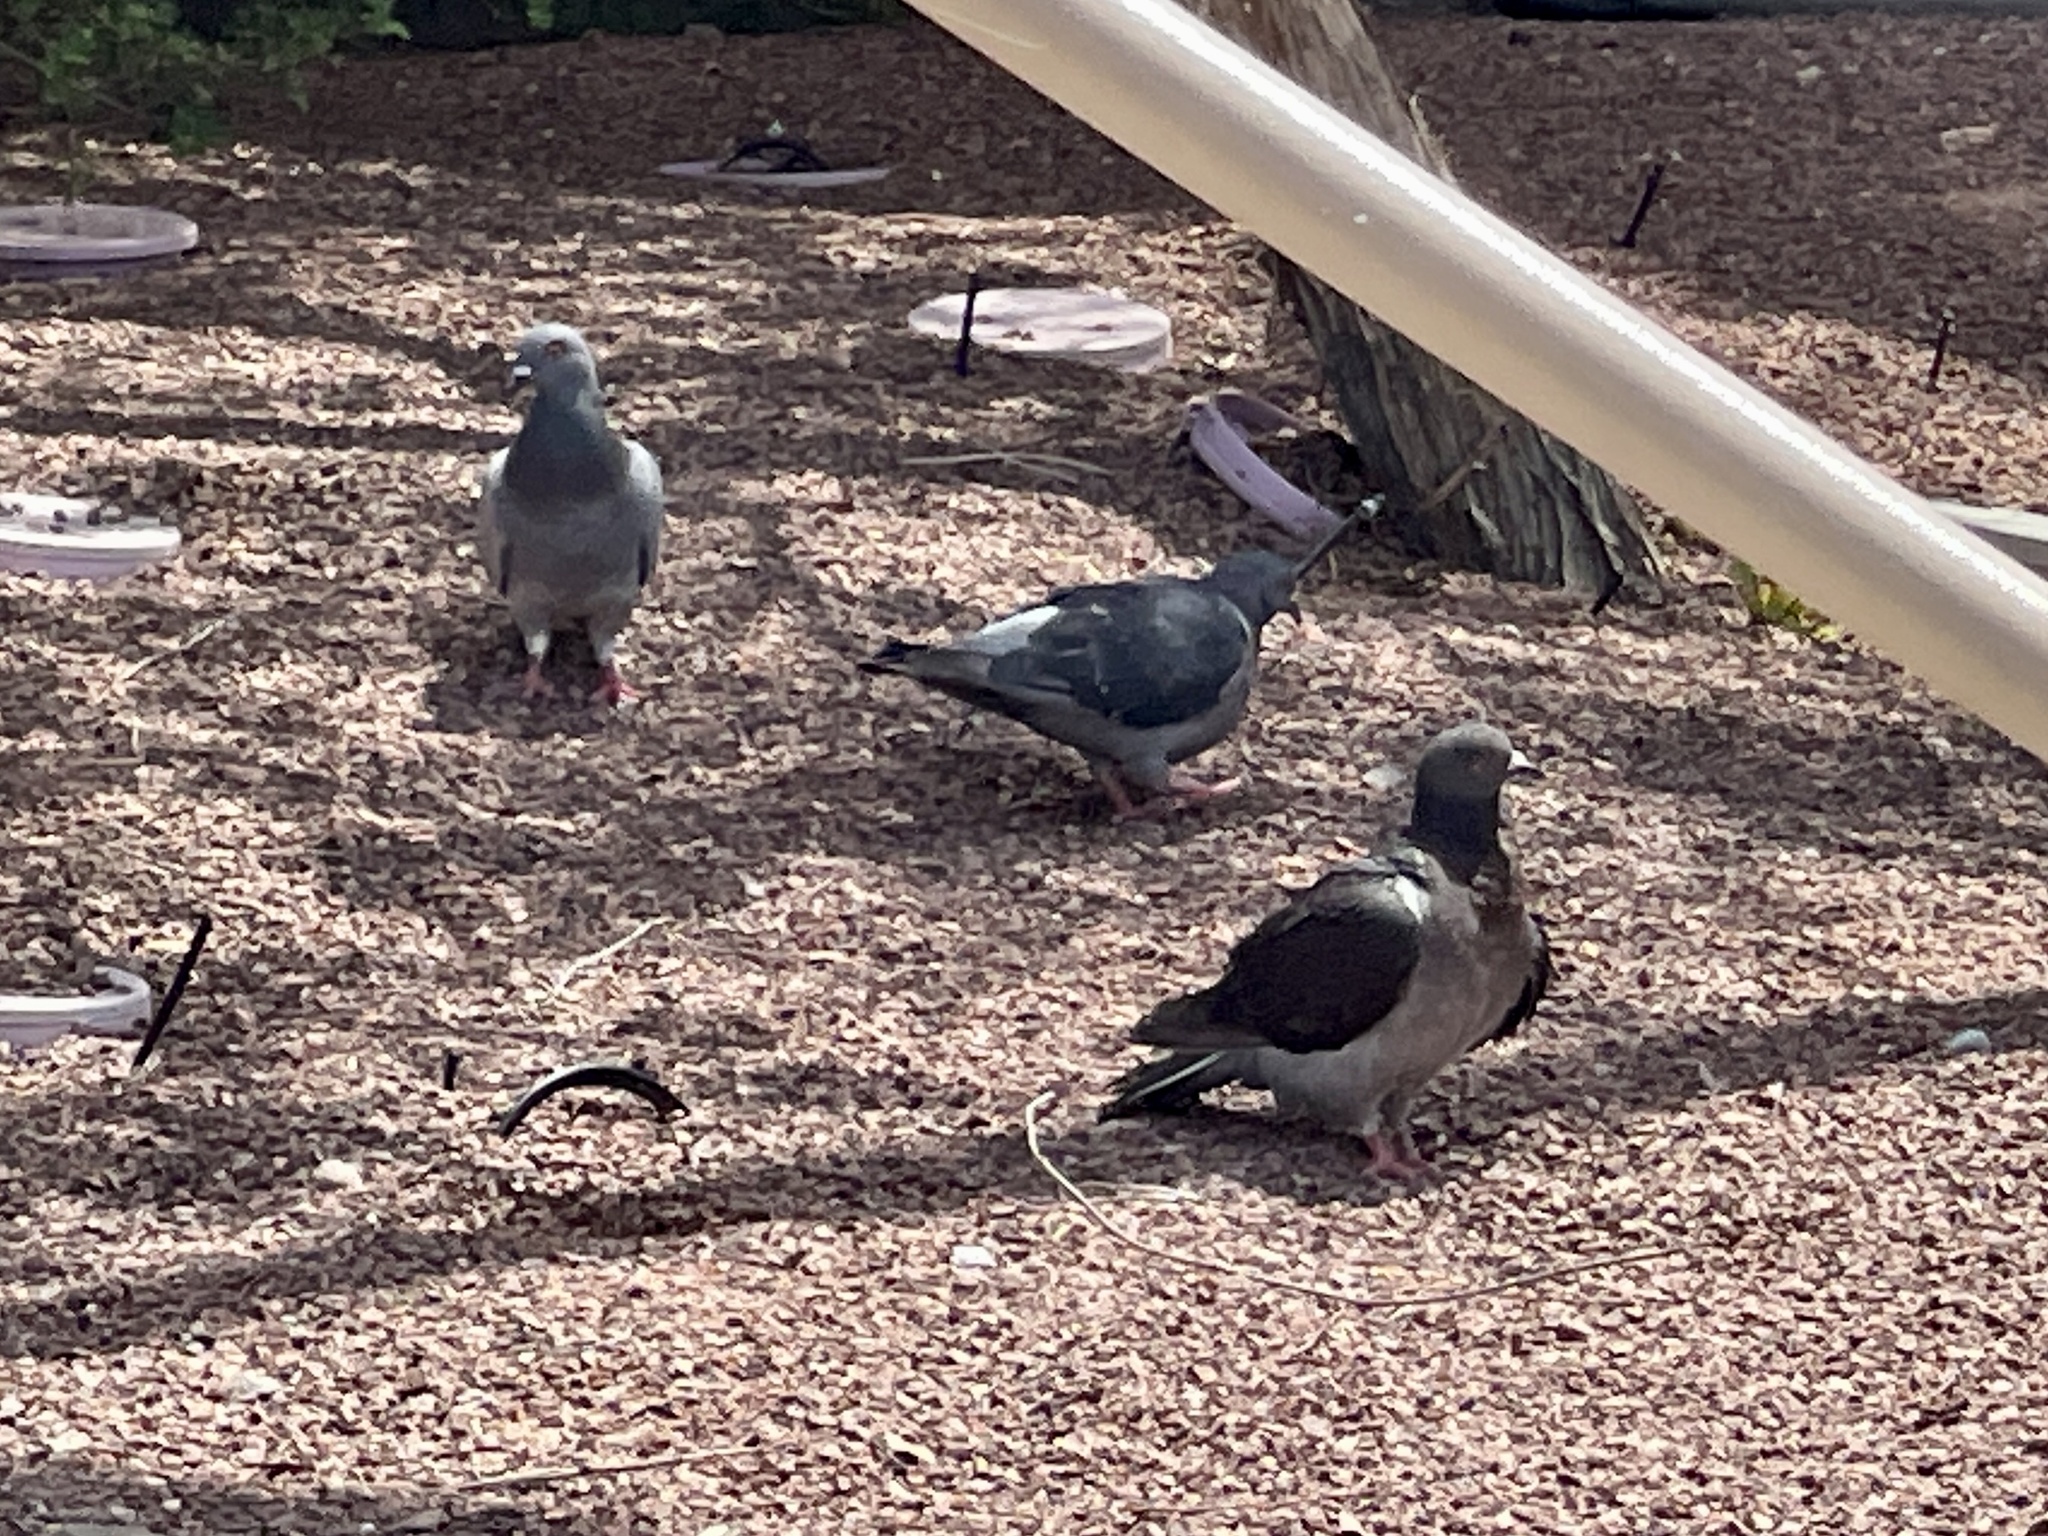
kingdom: Animalia
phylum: Chordata
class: Aves
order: Columbiformes
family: Columbidae
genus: Columba
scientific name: Columba livia
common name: Rock pigeon
